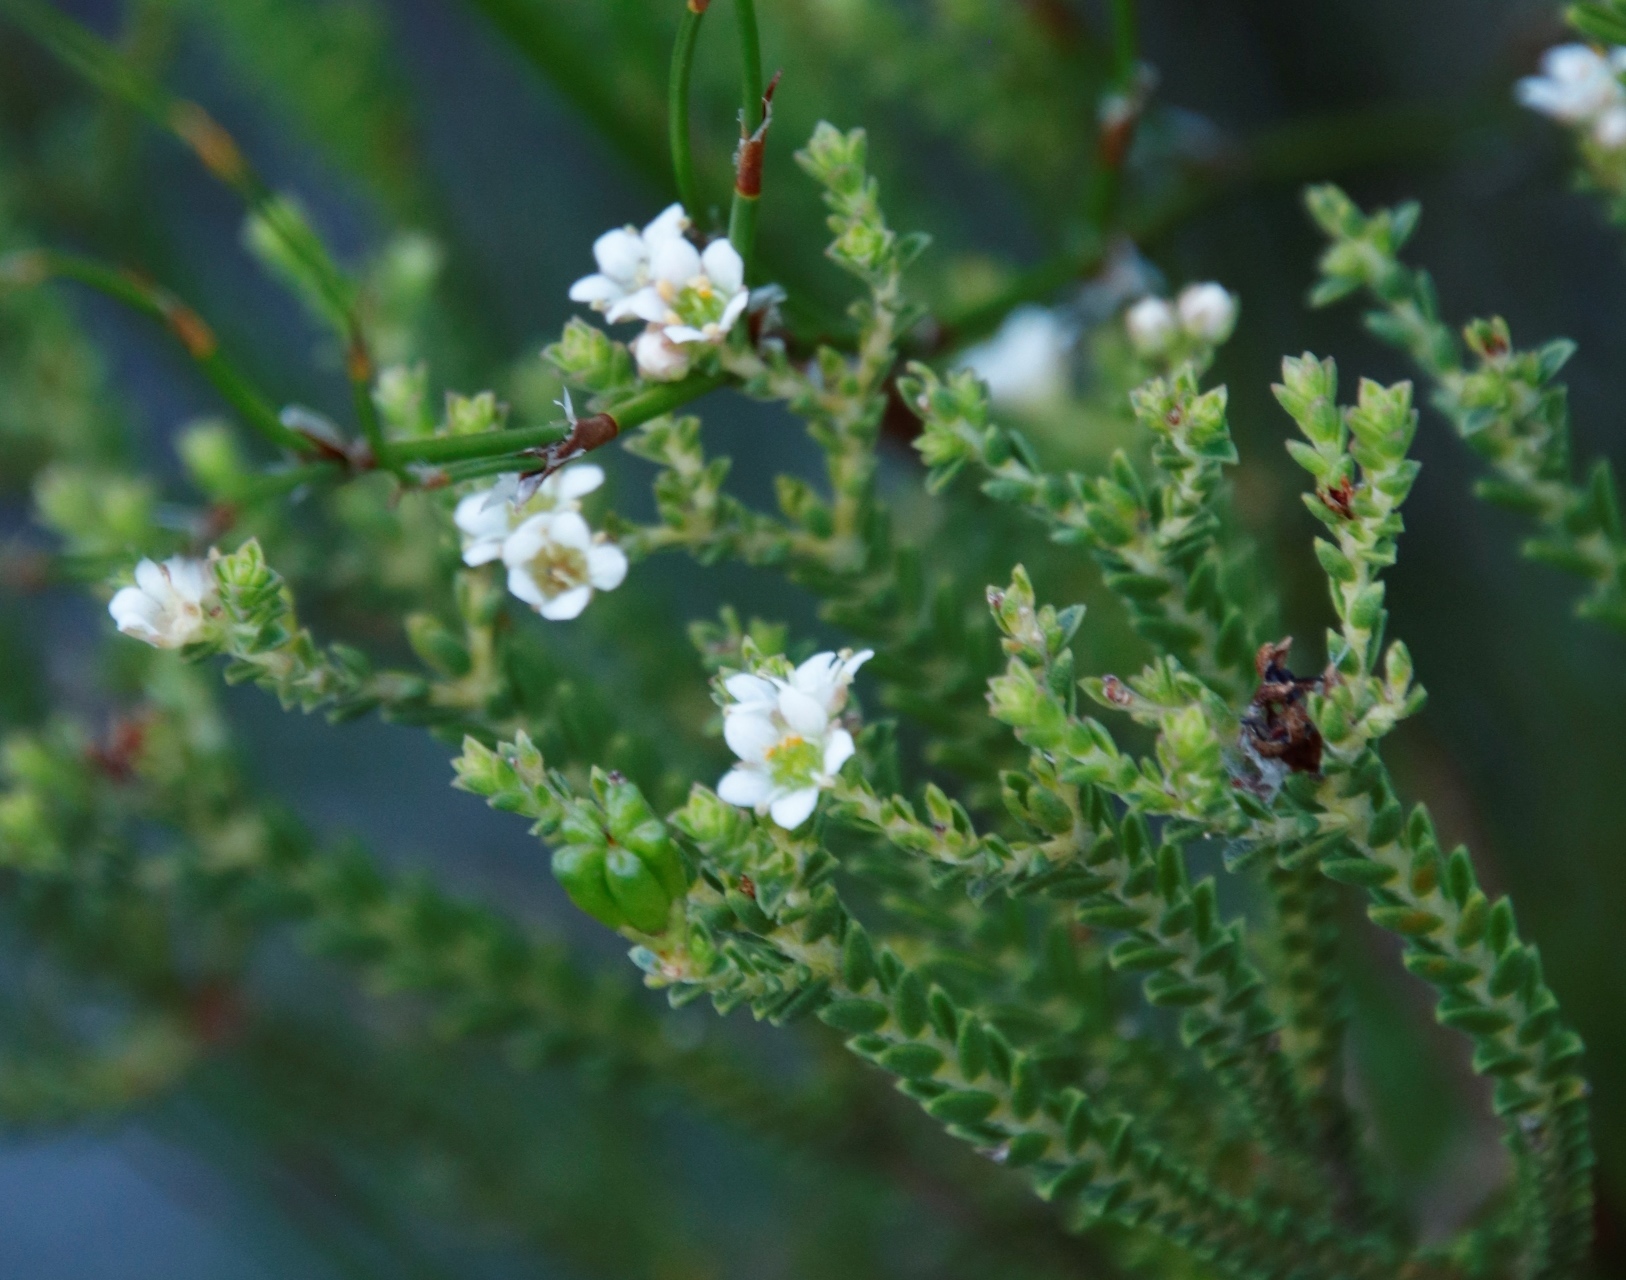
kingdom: Plantae
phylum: Tracheophyta
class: Magnoliopsida
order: Sapindales
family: Rutaceae
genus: Diosma
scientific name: Diosma oppositifolia
